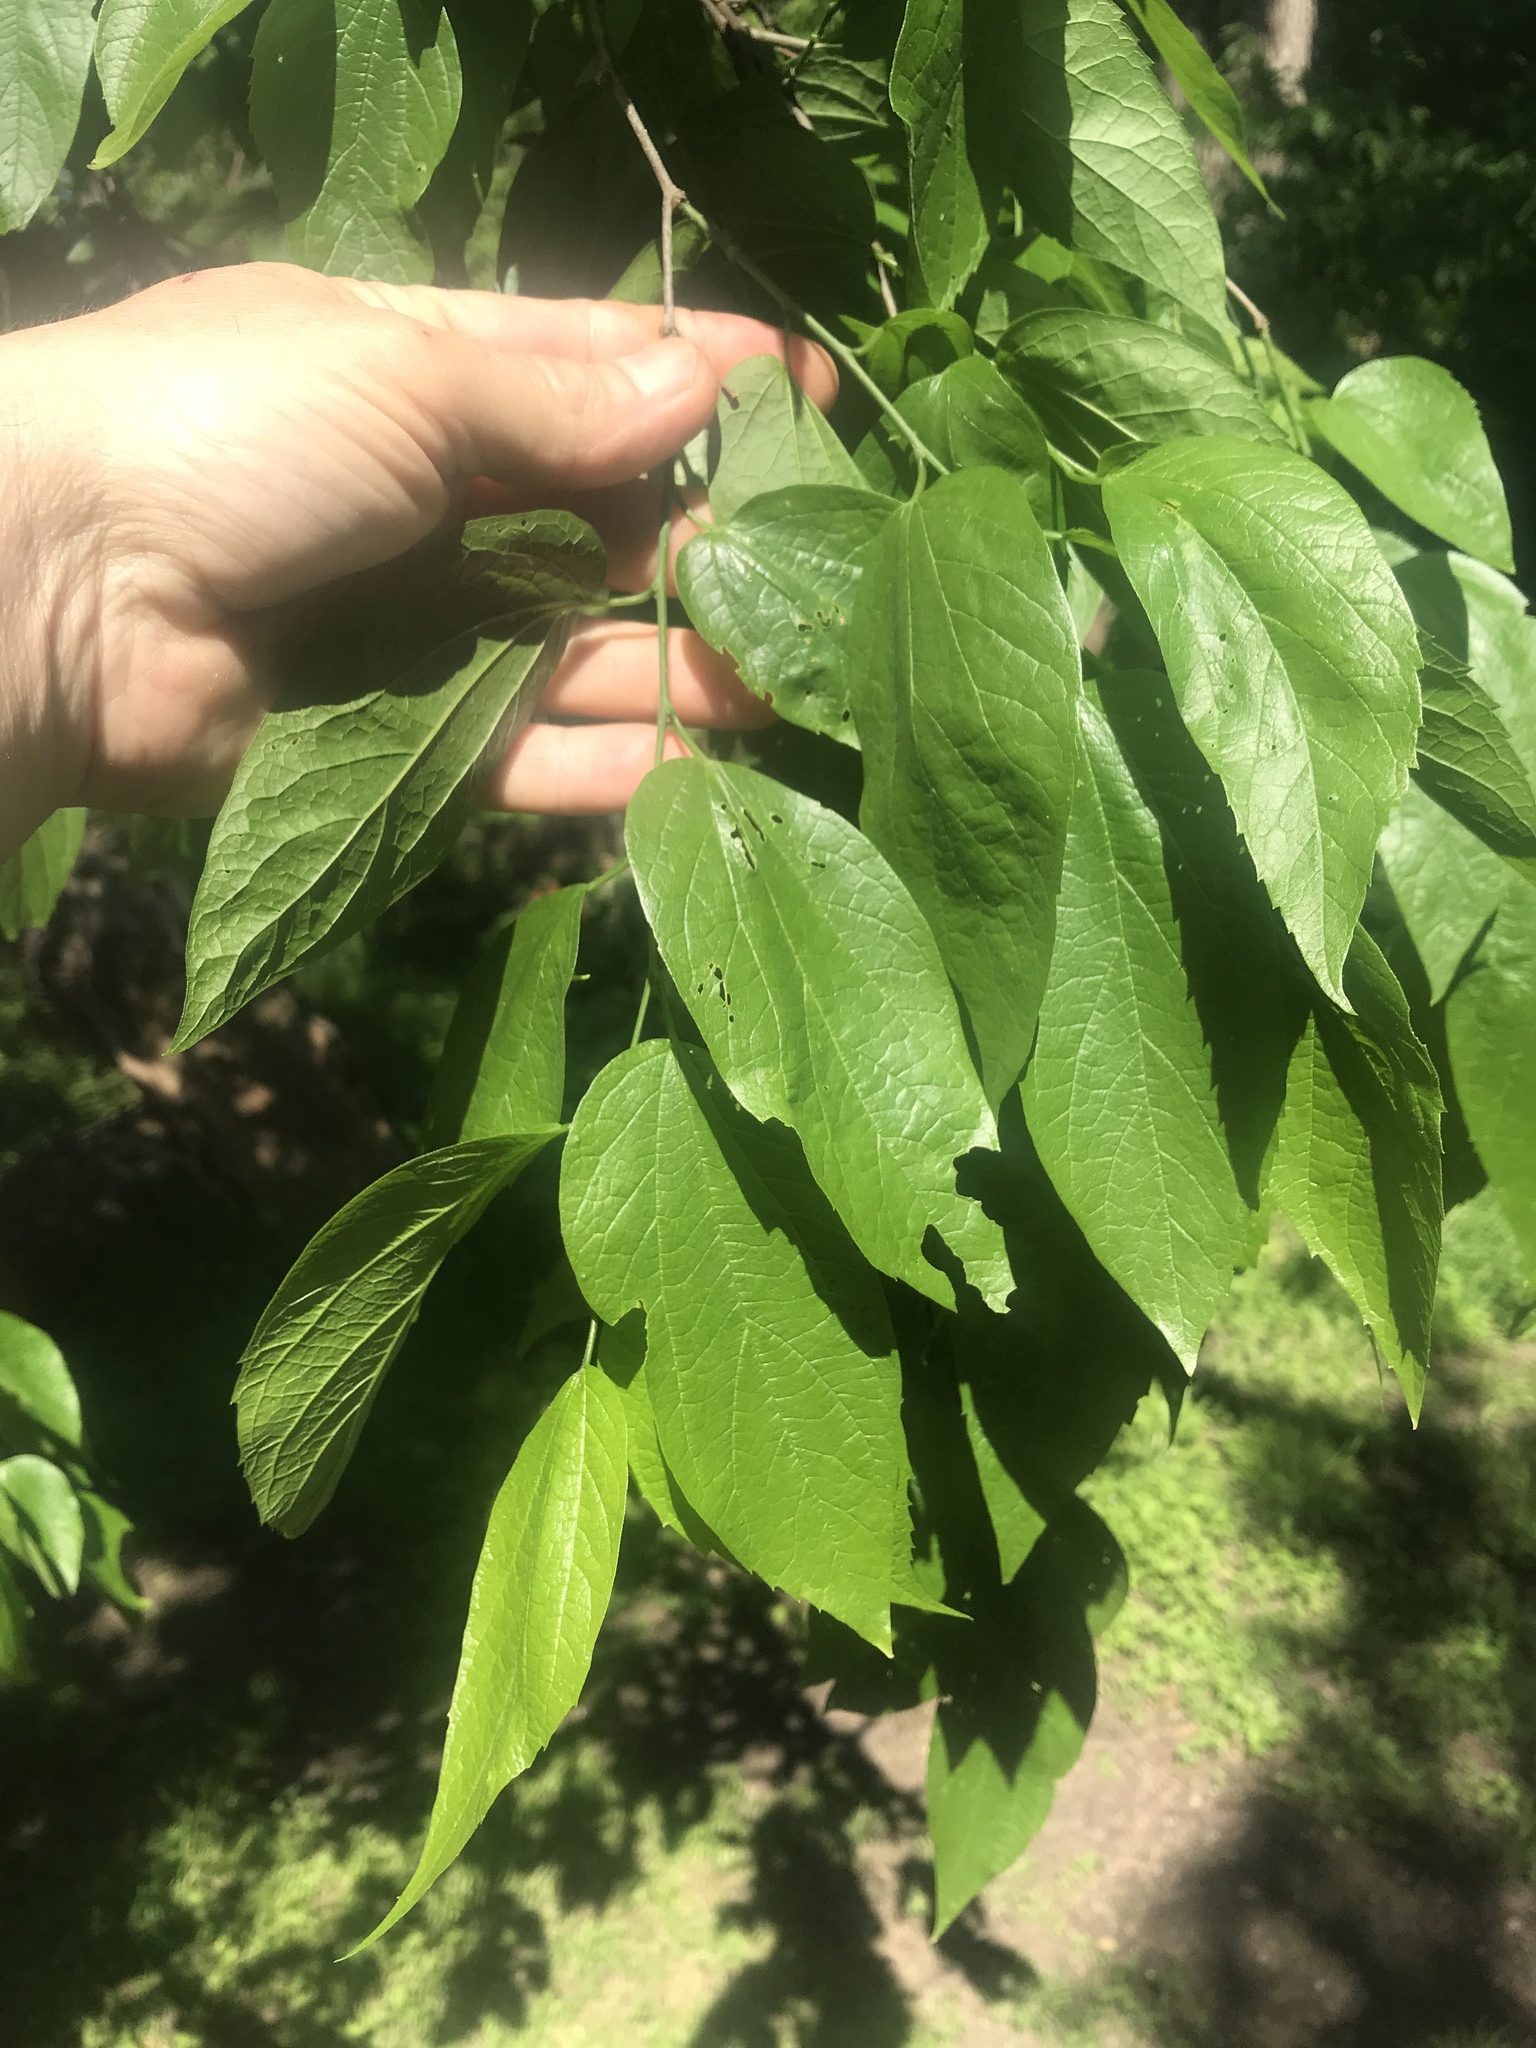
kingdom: Plantae
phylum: Tracheophyta
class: Magnoliopsida
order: Rosales
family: Cannabaceae
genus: Celtis
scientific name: Celtis laevigata
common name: Sugarberry
